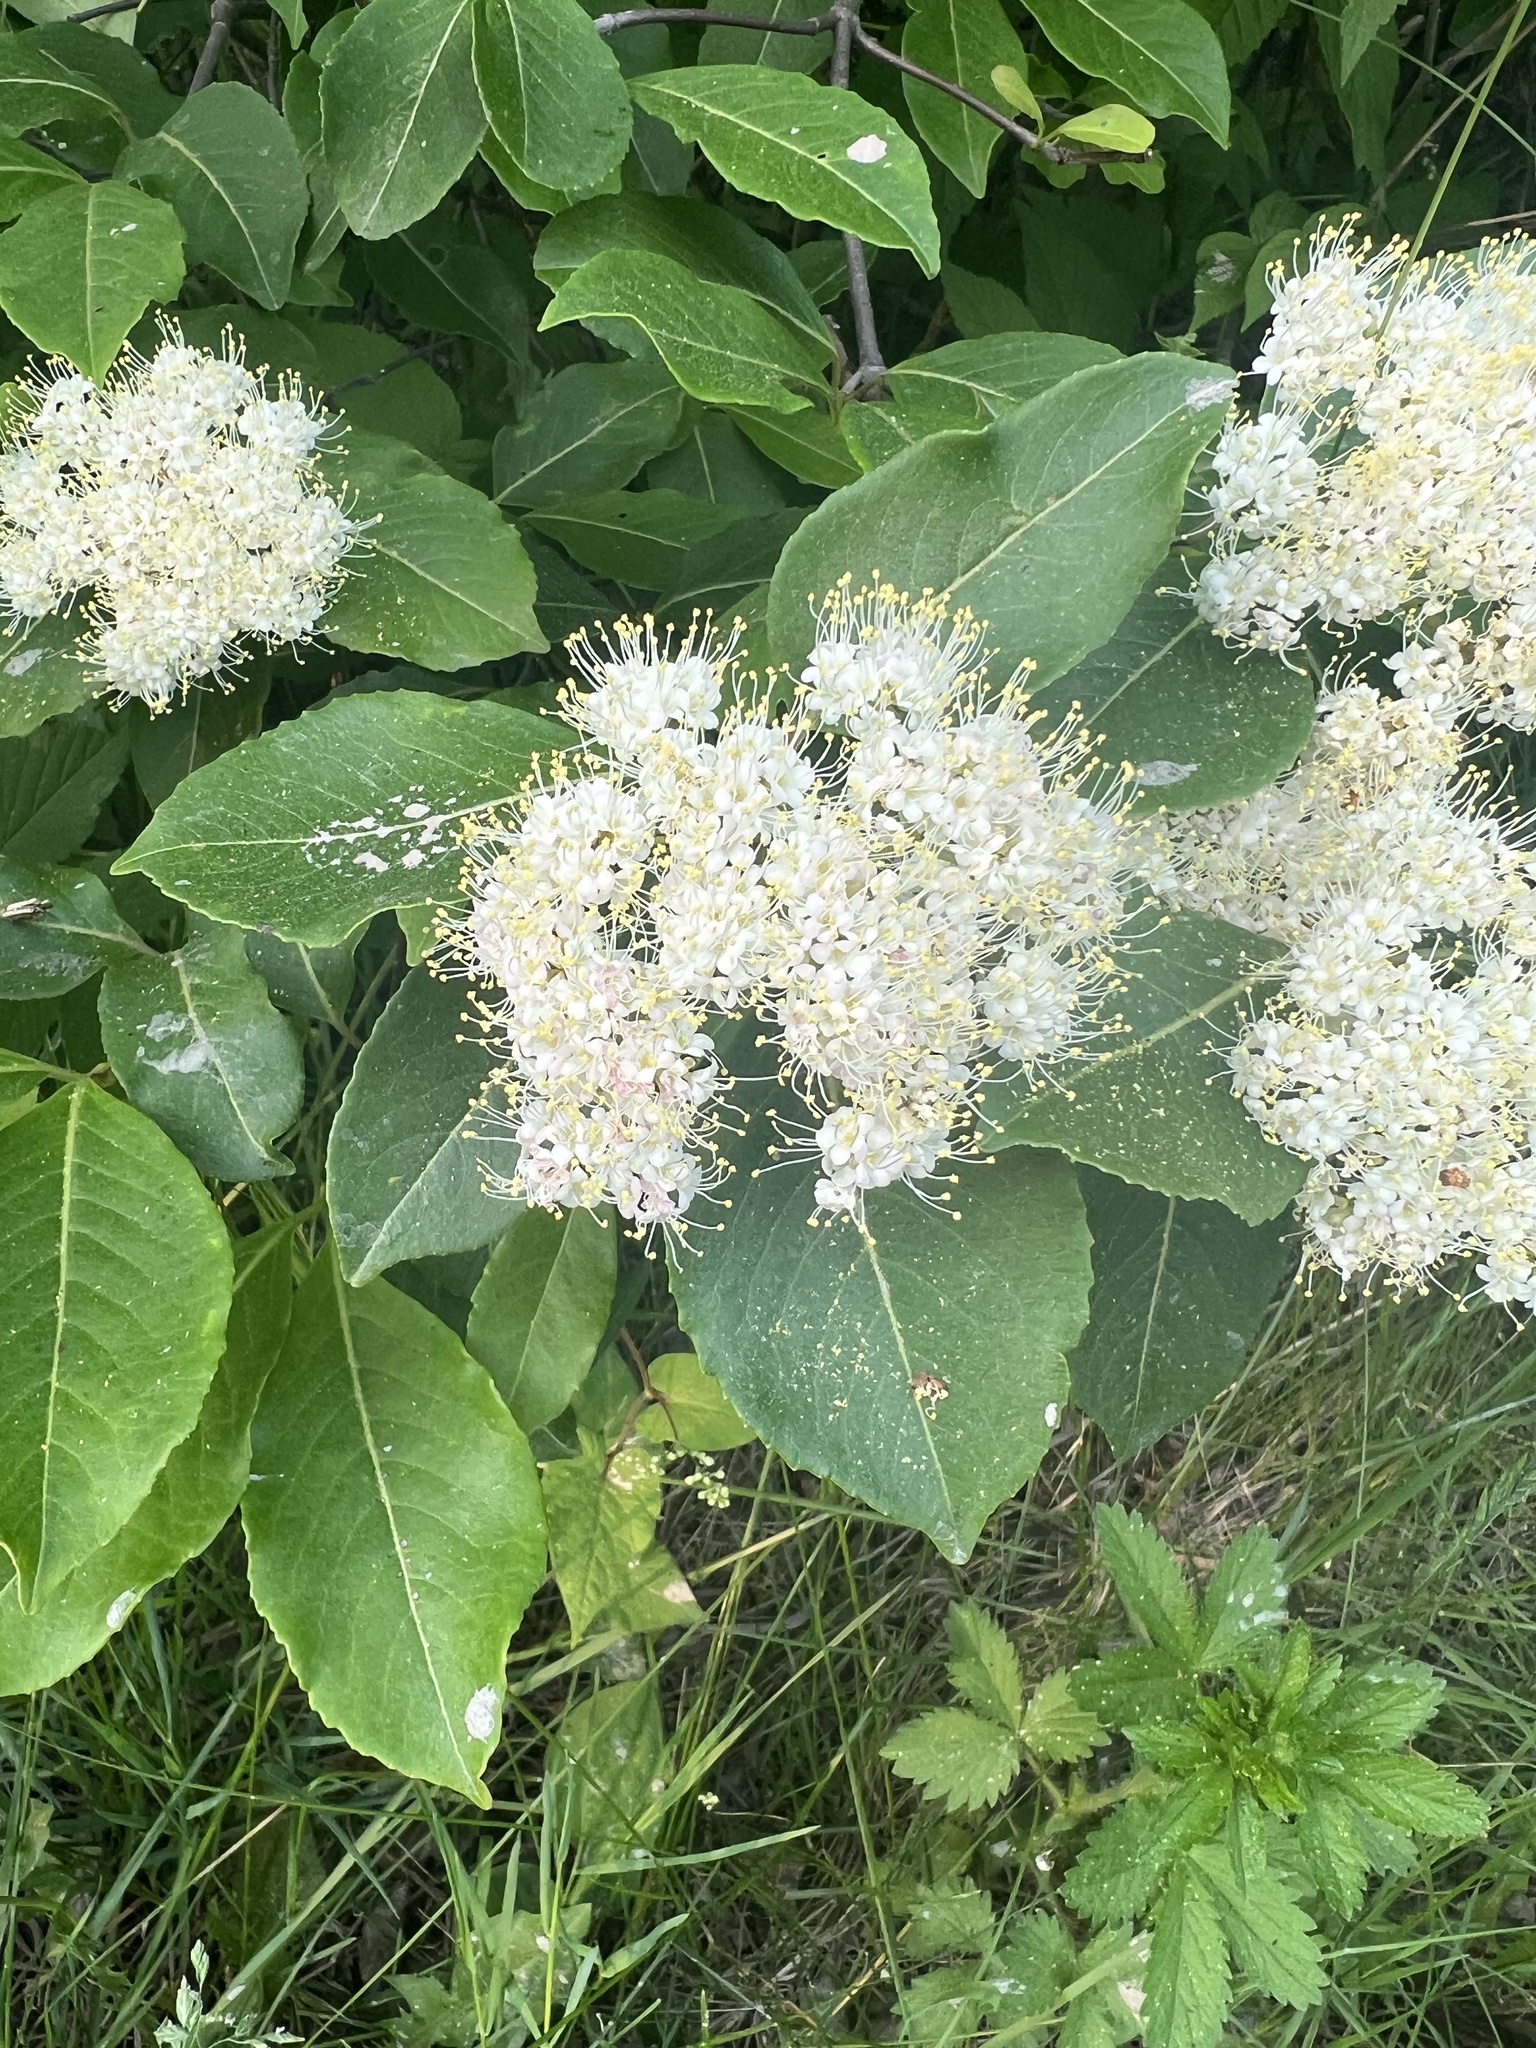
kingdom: Plantae
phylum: Tracheophyta
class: Magnoliopsida
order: Dipsacales
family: Viburnaceae
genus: Viburnum
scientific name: Viburnum cassinoides
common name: Swamp haw
